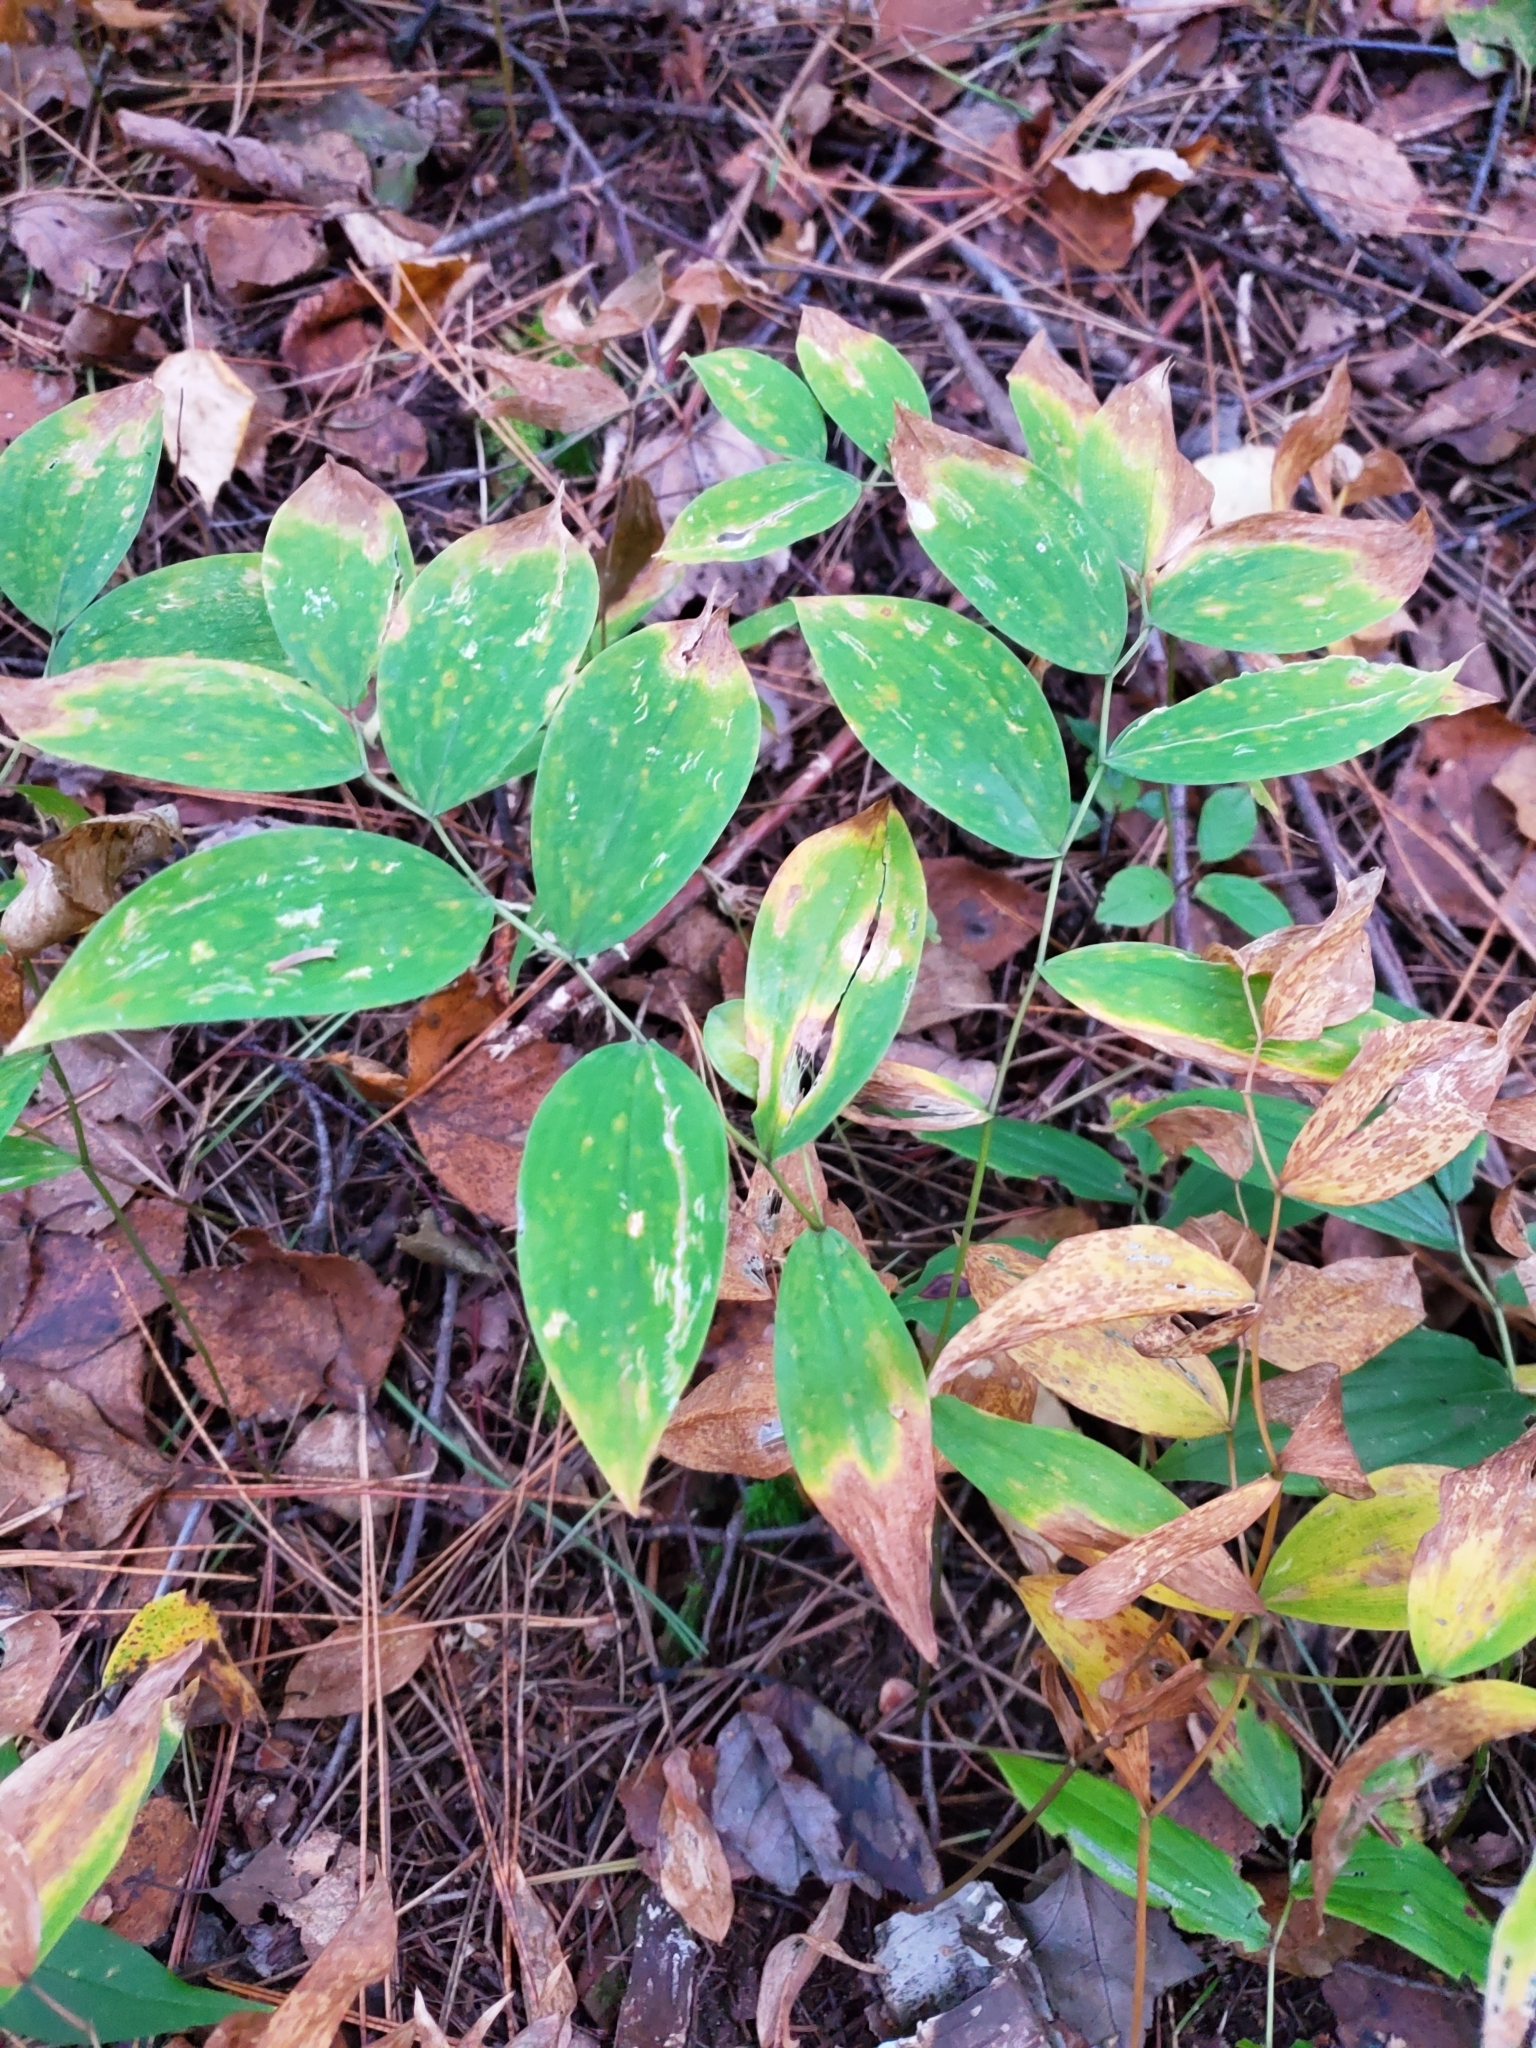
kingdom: Plantae
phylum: Tracheophyta
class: Liliopsida
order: Liliales
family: Colchicaceae
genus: Uvularia
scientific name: Uvularia sessilifolia
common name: Straw-lily
